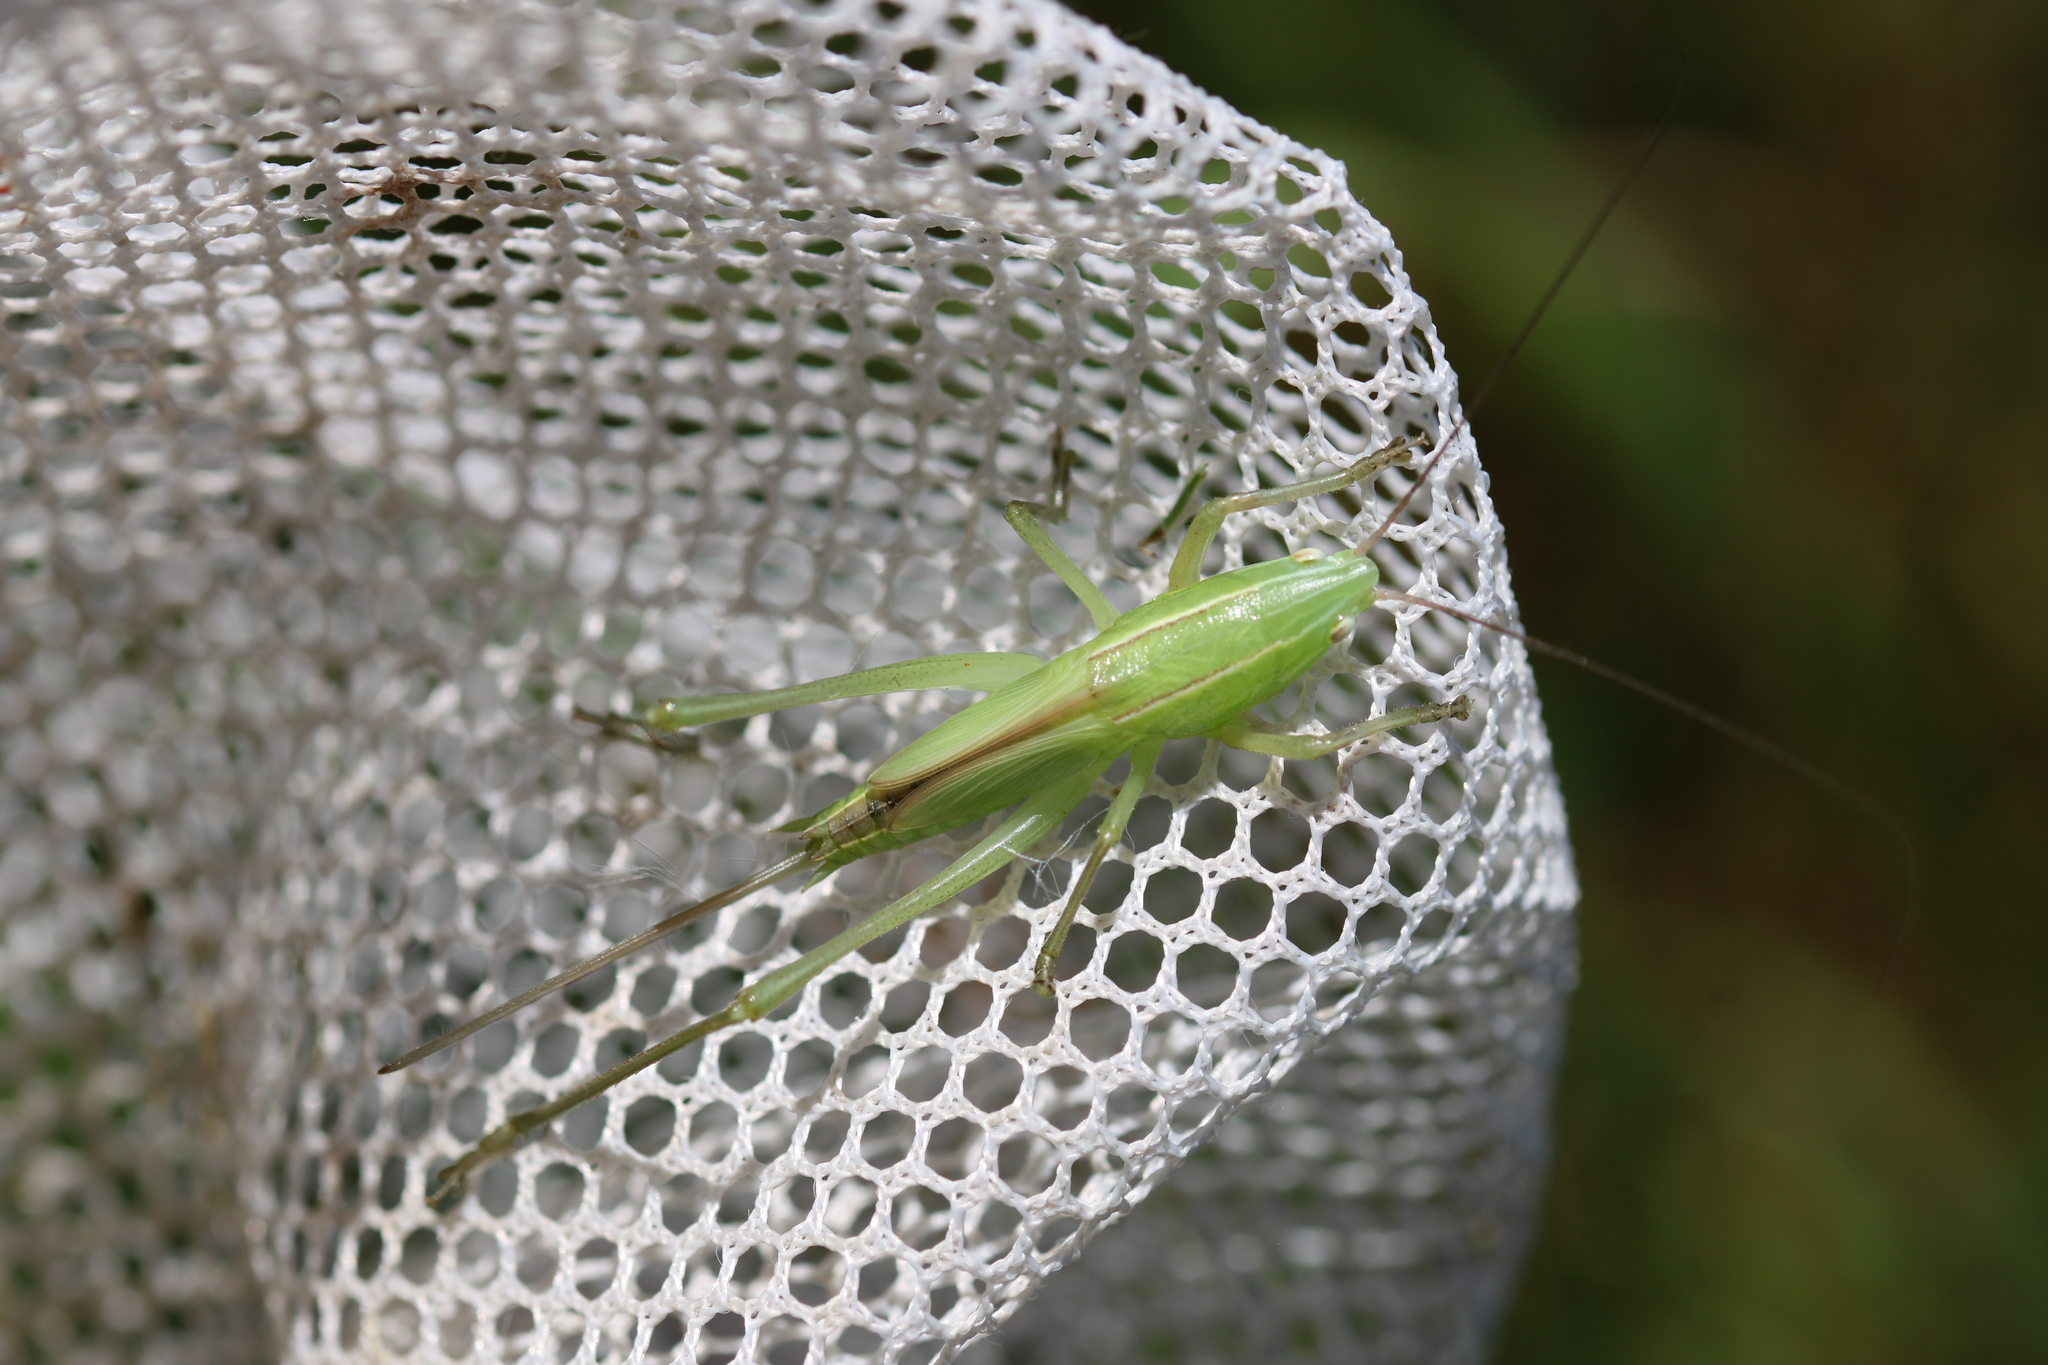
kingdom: Animalia
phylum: Arthropoda
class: Insecta
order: Orthoptera
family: Tettigoniidae
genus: Ruspolia
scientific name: Ruspolia nitidula
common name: Large conehead
